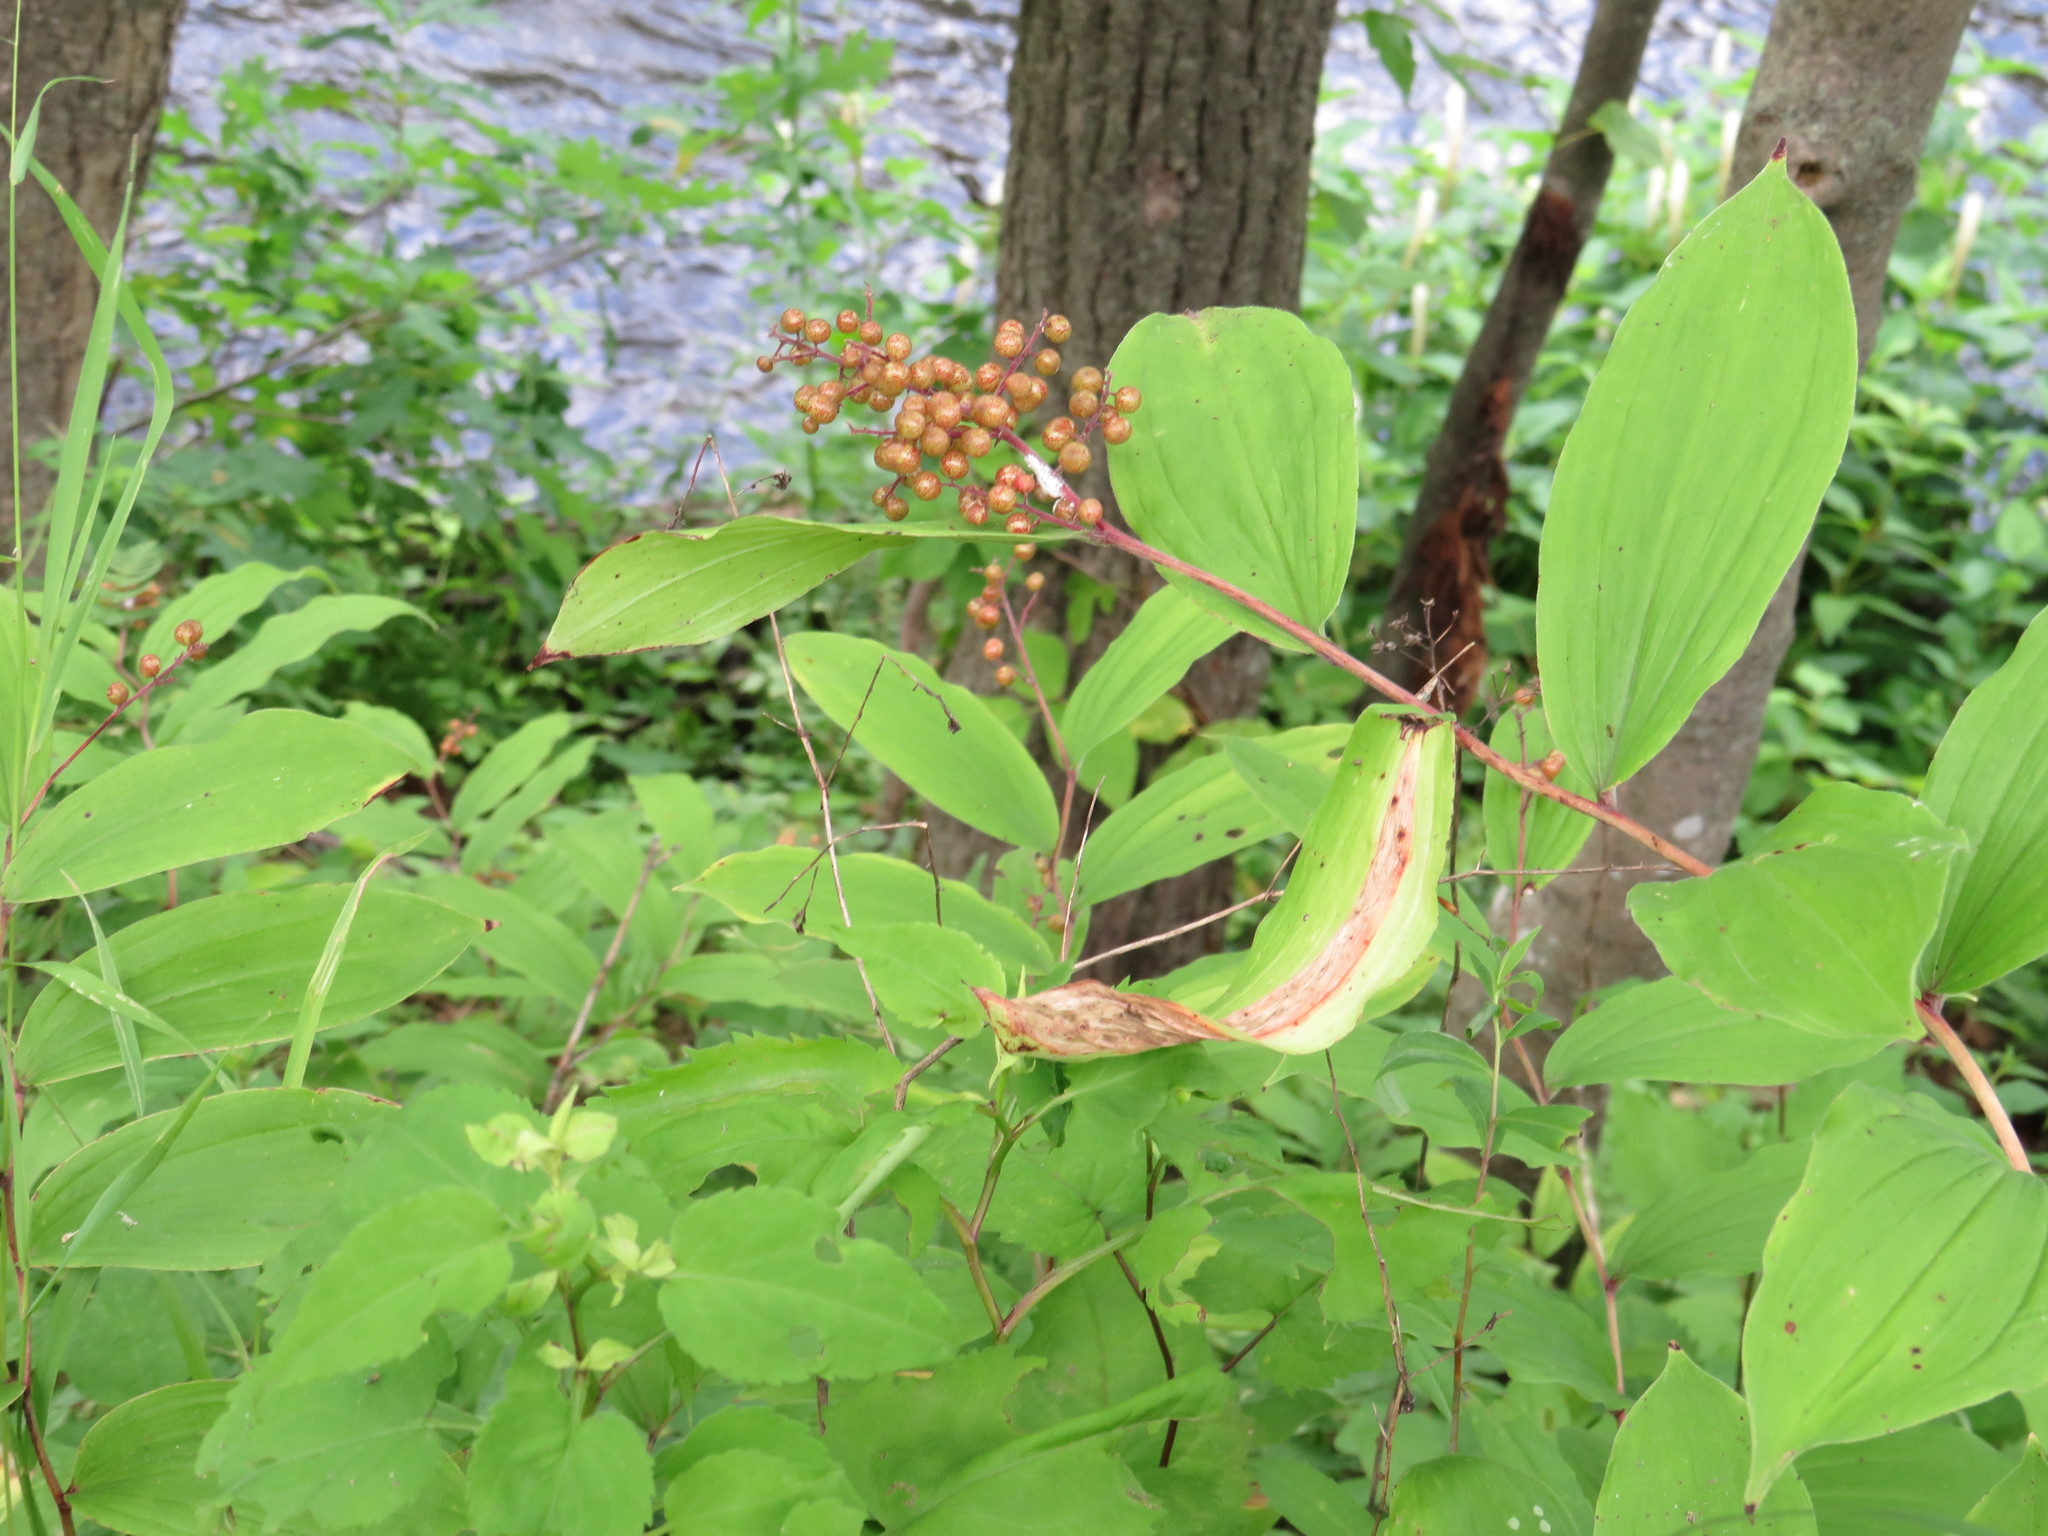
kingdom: Plantae
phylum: Tracheophyta
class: Liliopsida
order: Asparagales
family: Asparagaceae
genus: Maianthemum
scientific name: Maianthemum racemosum
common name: False spikenard
